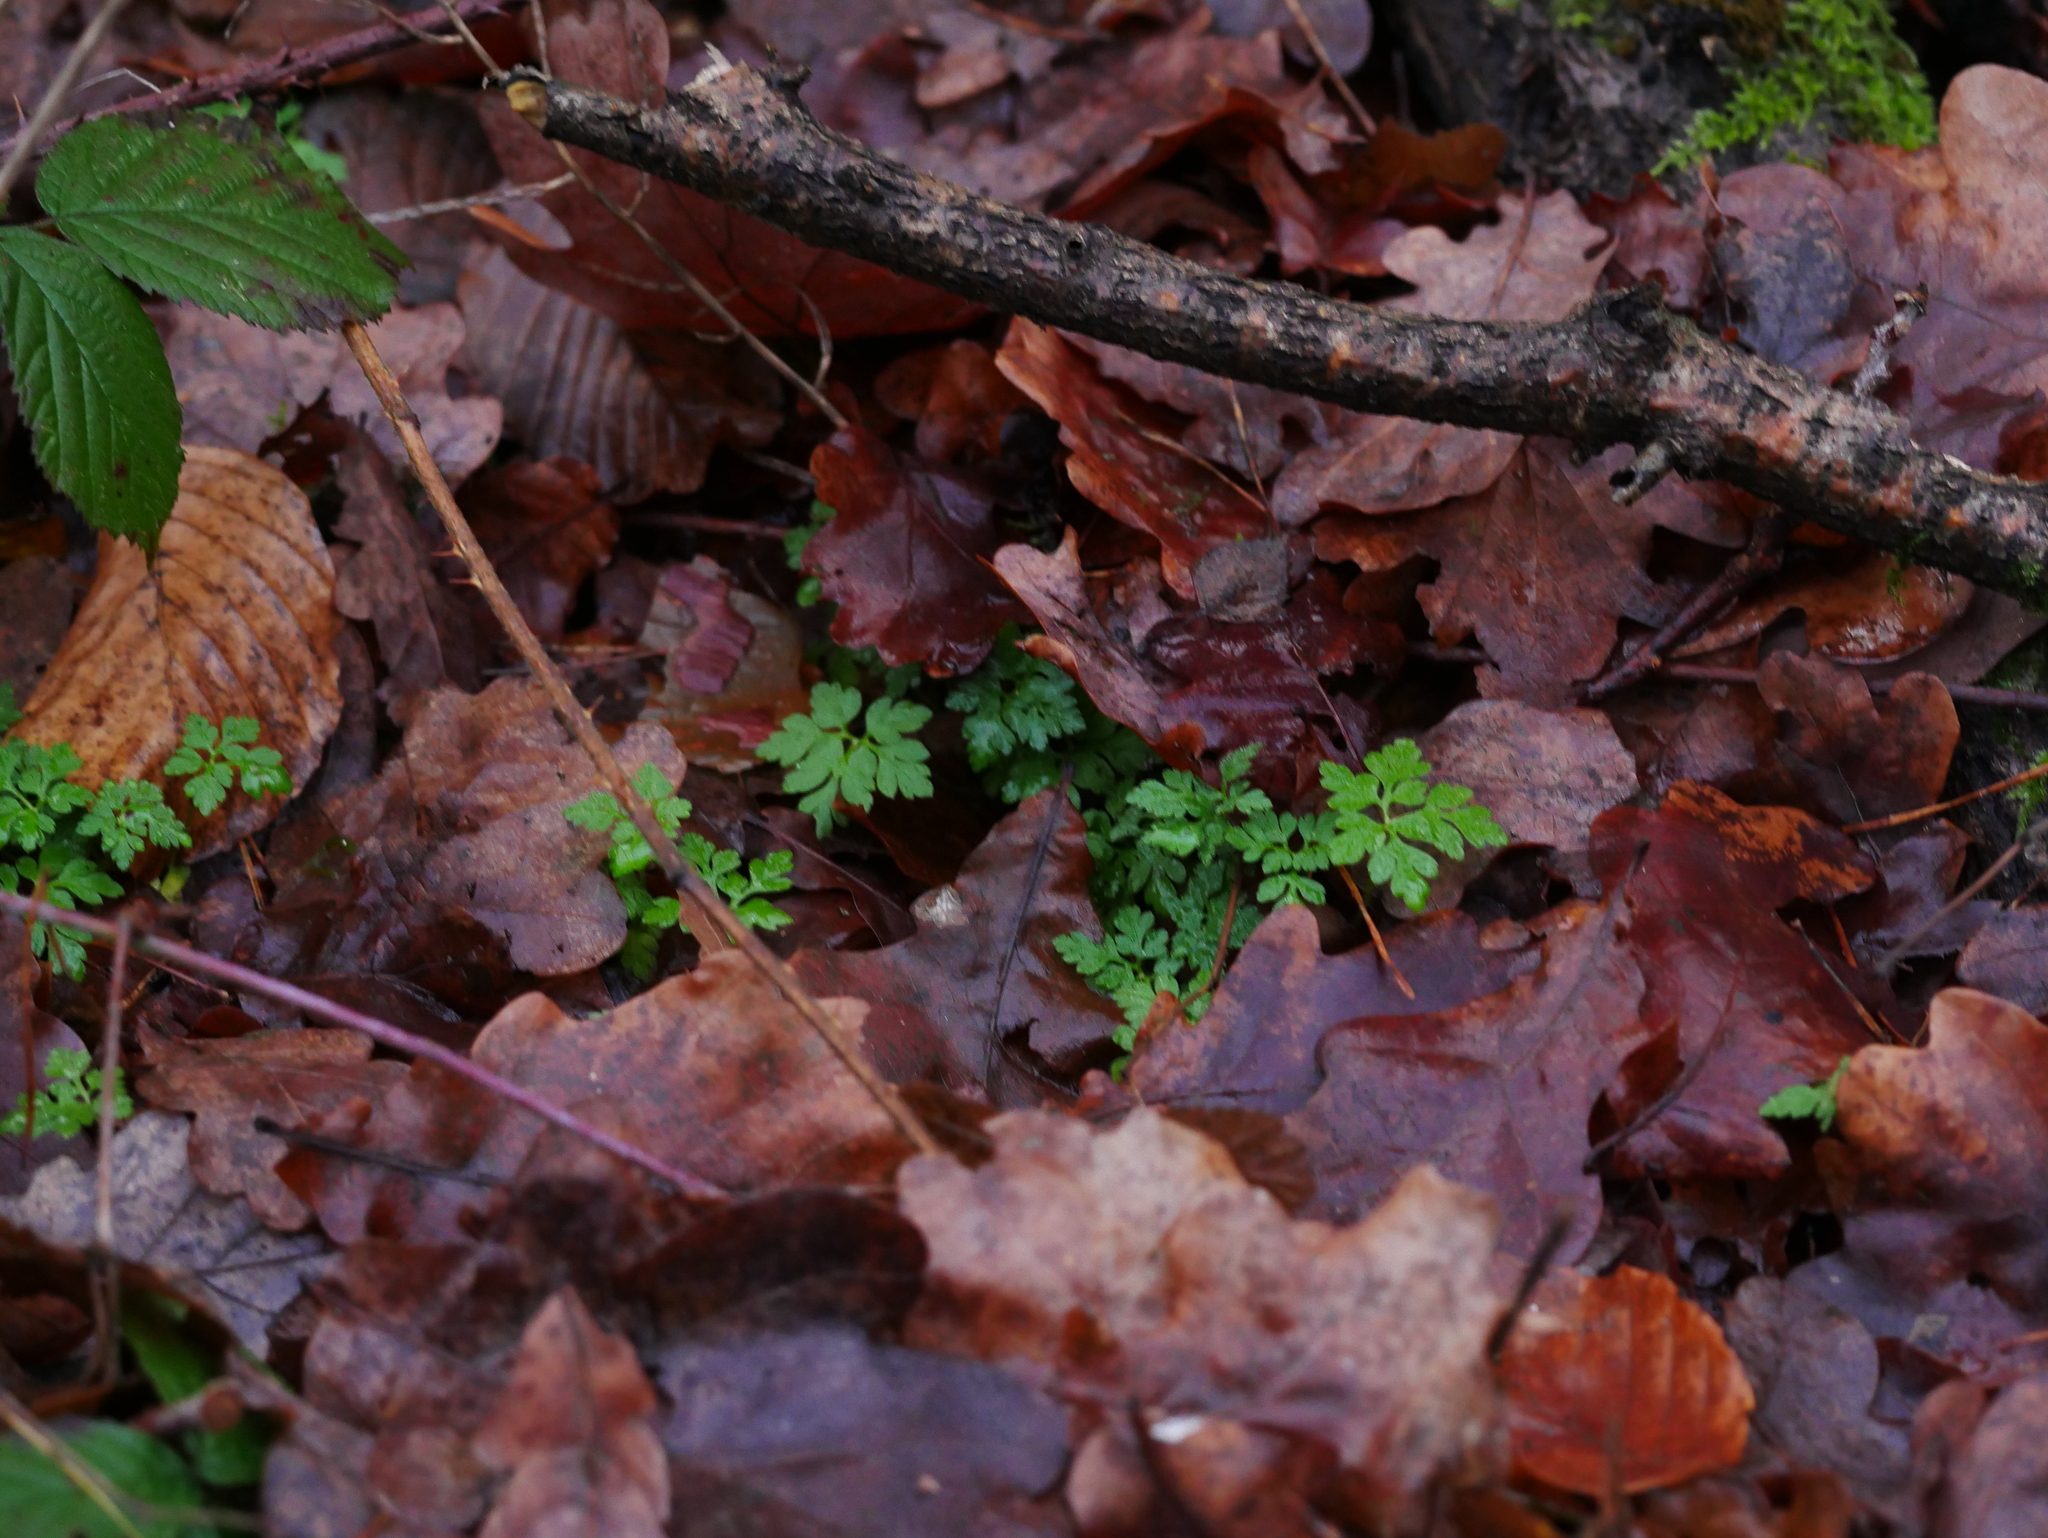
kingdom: Plantae
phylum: Tracheophyta
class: Magnoliopsida
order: Geraniales
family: Geraniaceae
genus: Geranium
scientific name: Geranium robertianum
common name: Herb-robert
